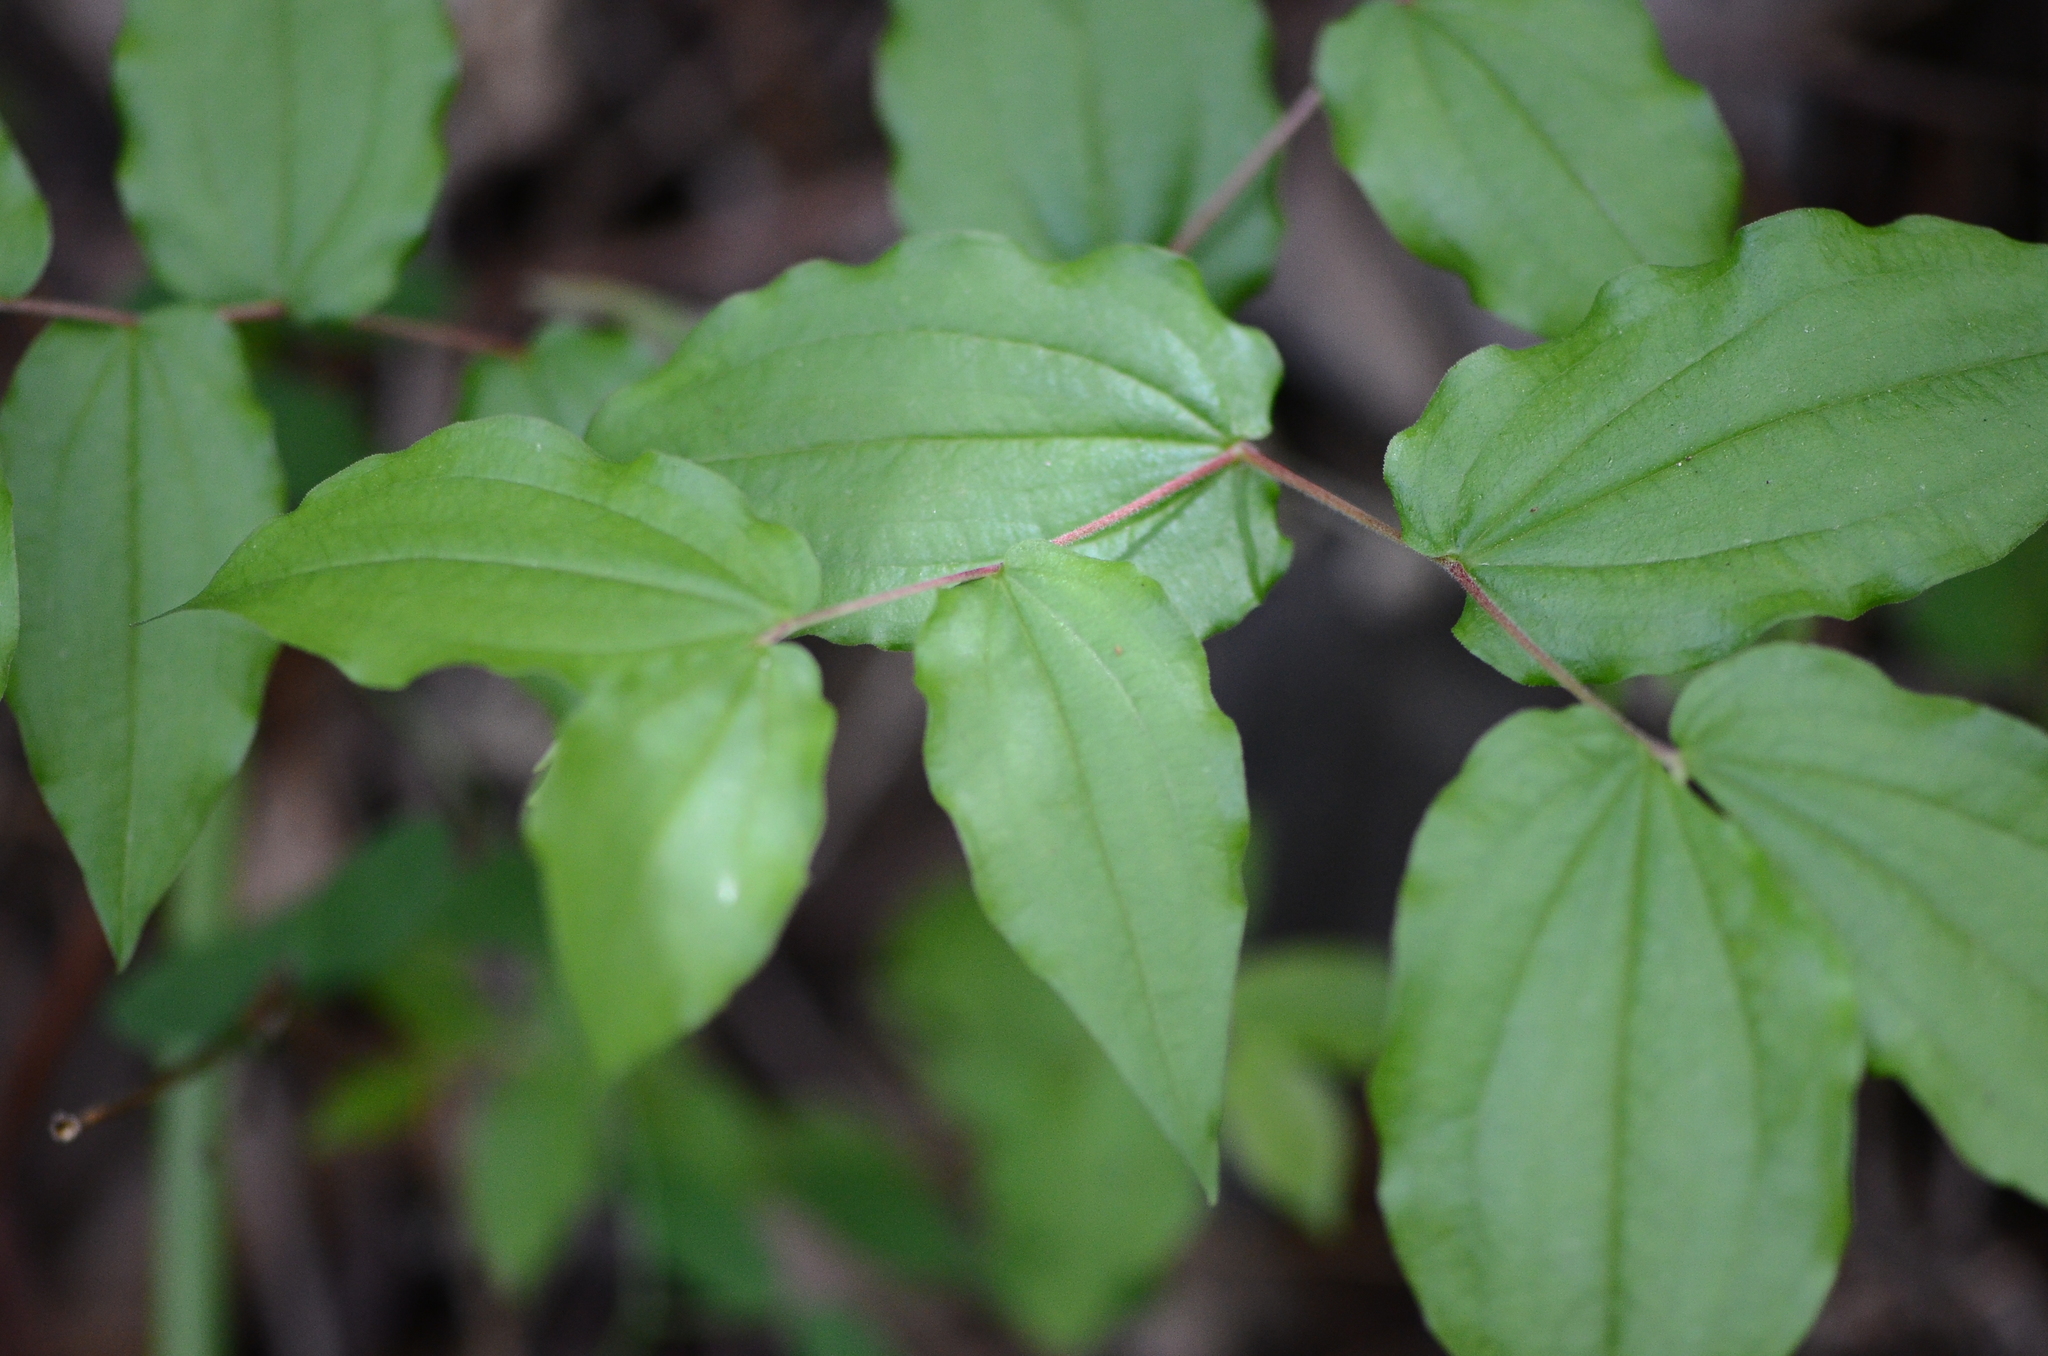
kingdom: Plantae
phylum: Tracheophyta
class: Liliopsida
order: Liliales
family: Liliaceae
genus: Prosartes
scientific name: Prosartes hookeri
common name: Fairy-bells
